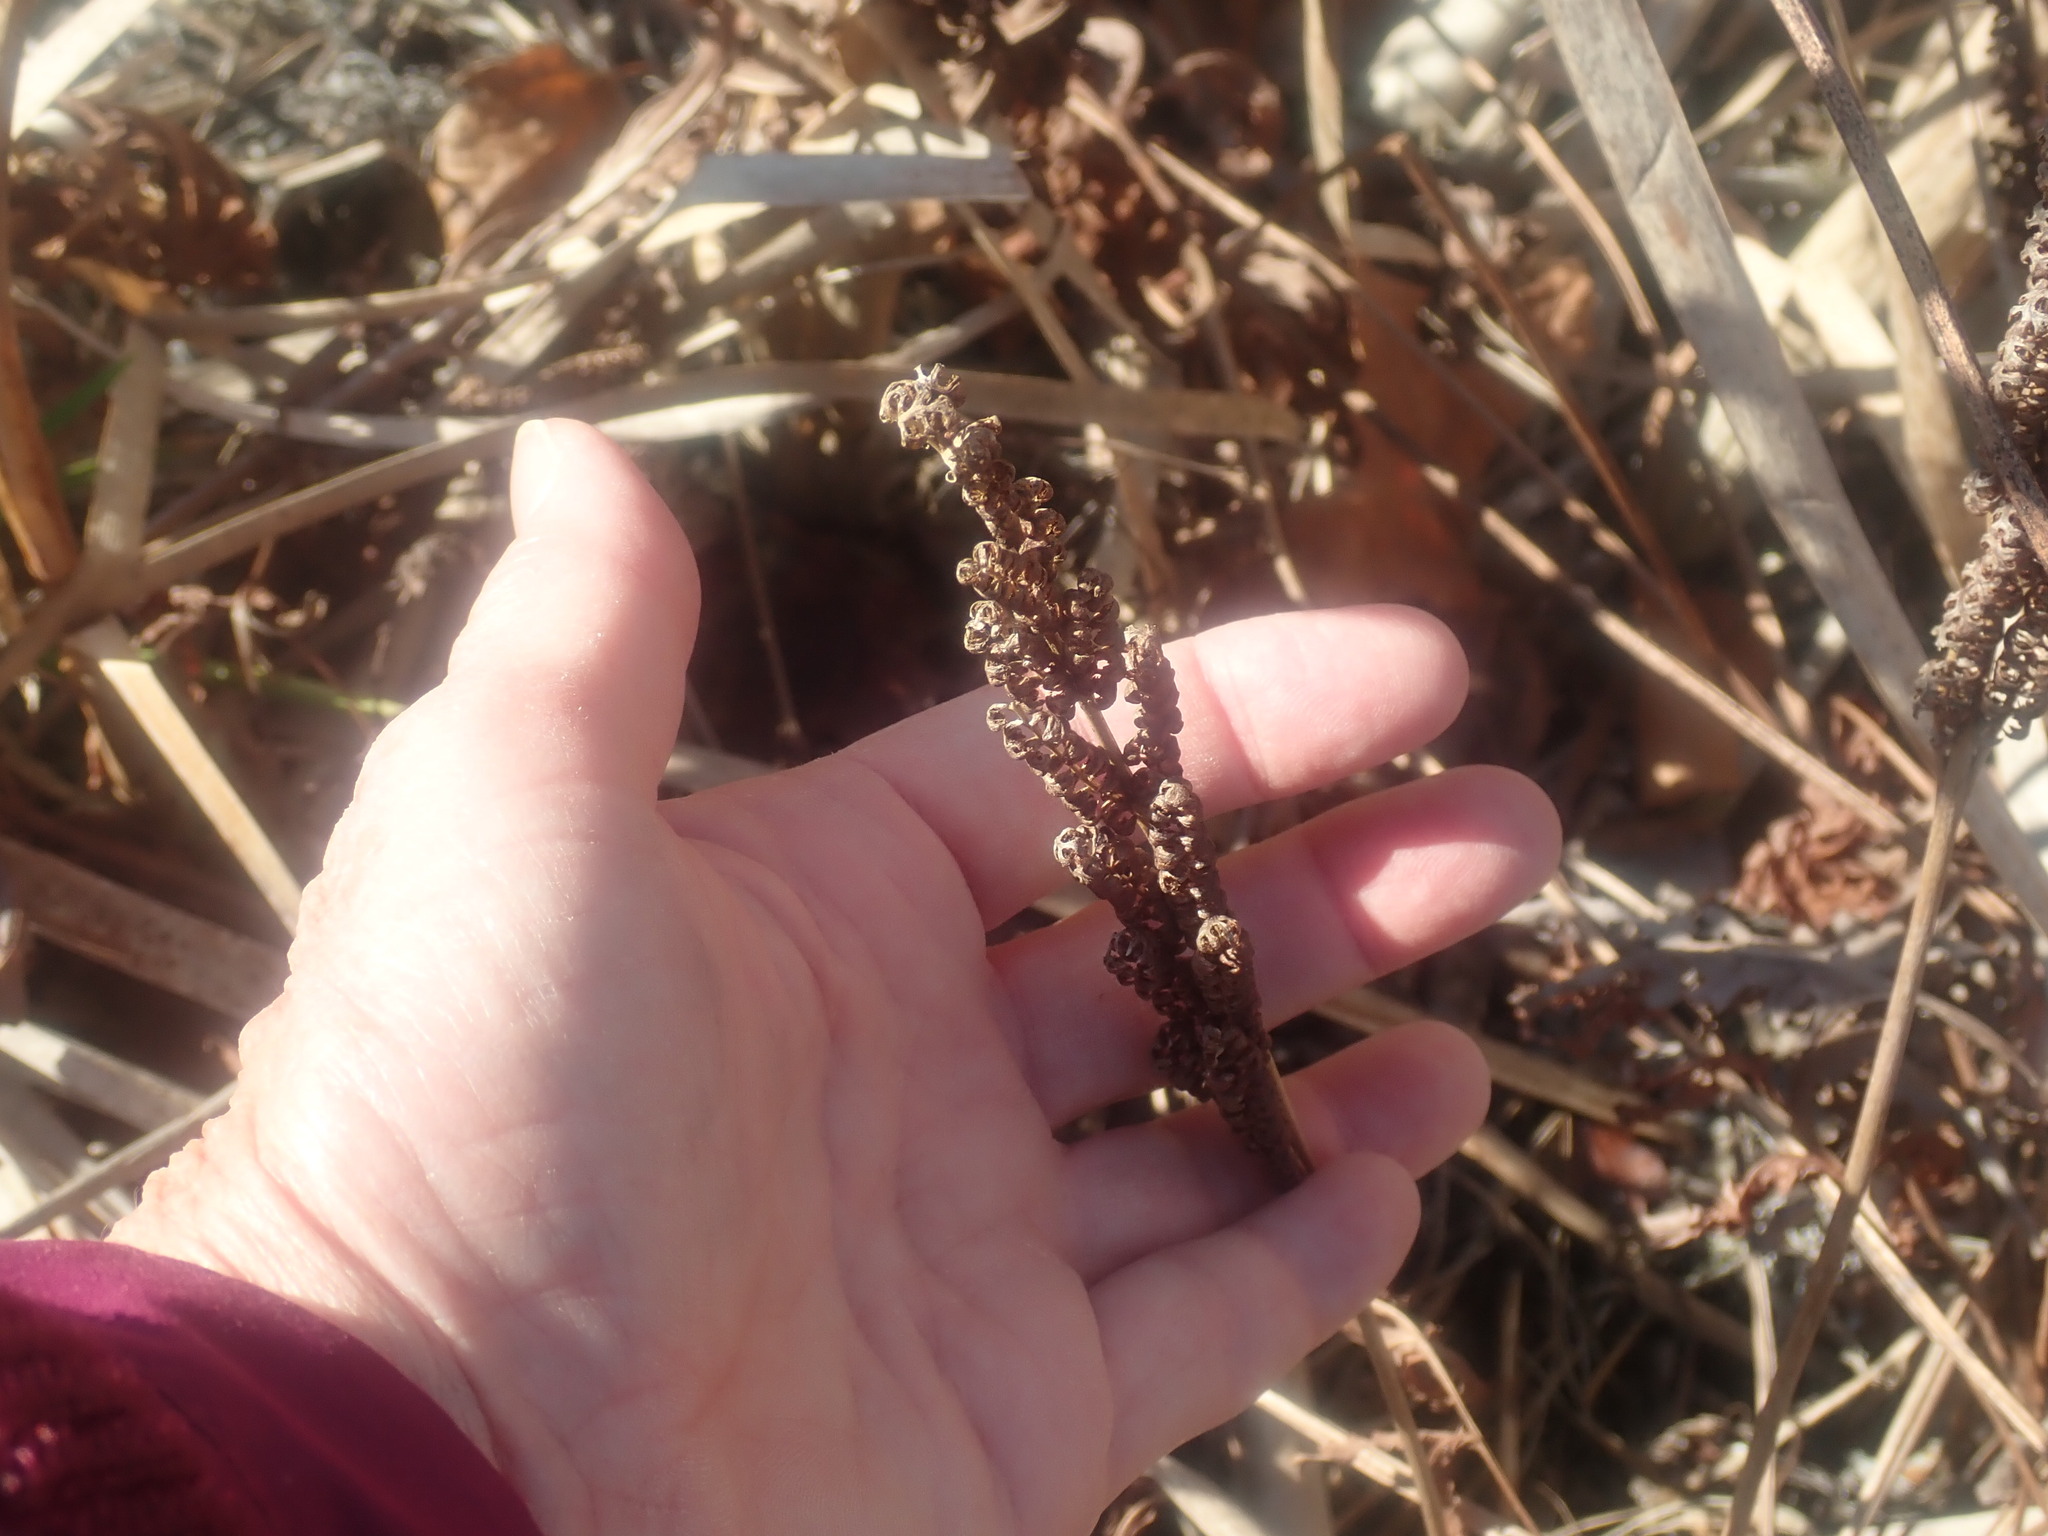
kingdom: Plantae
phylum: Tracheophyta
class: Polypodiopsida
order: Polypodiales
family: Onocleaceae
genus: Onoclea
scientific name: Onoclea sensibilis
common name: Sensitive fern
